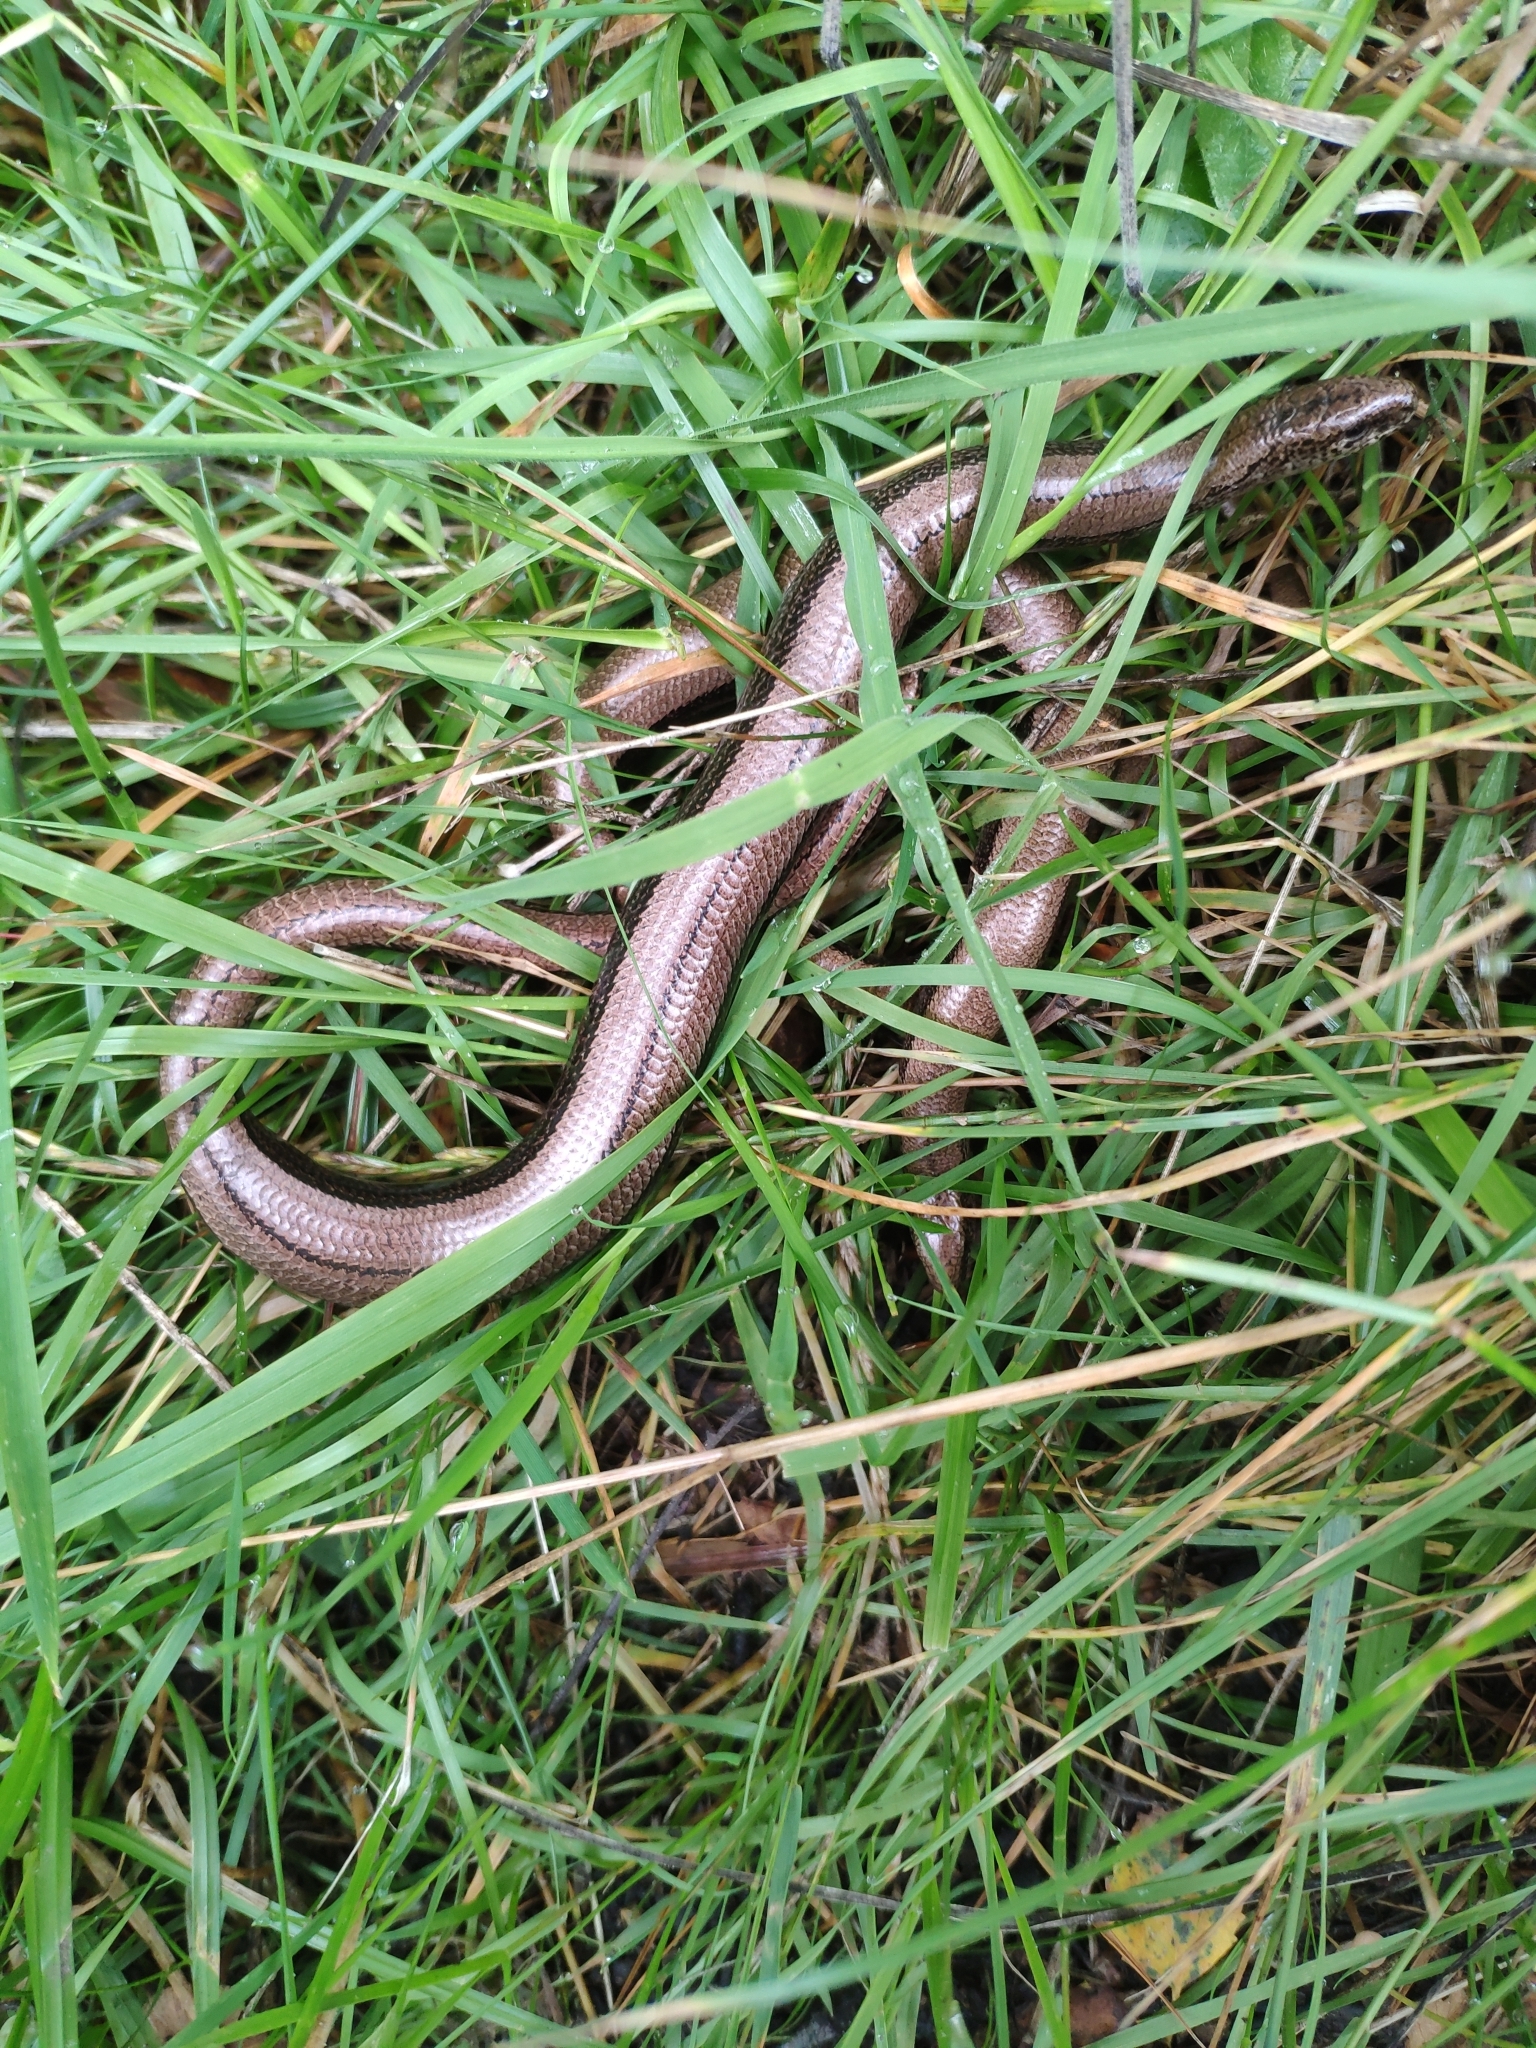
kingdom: Animalia
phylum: Chordata
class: Squamata
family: Anguidae
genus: Anguis
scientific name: Anguis fragilis
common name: Slow worm
